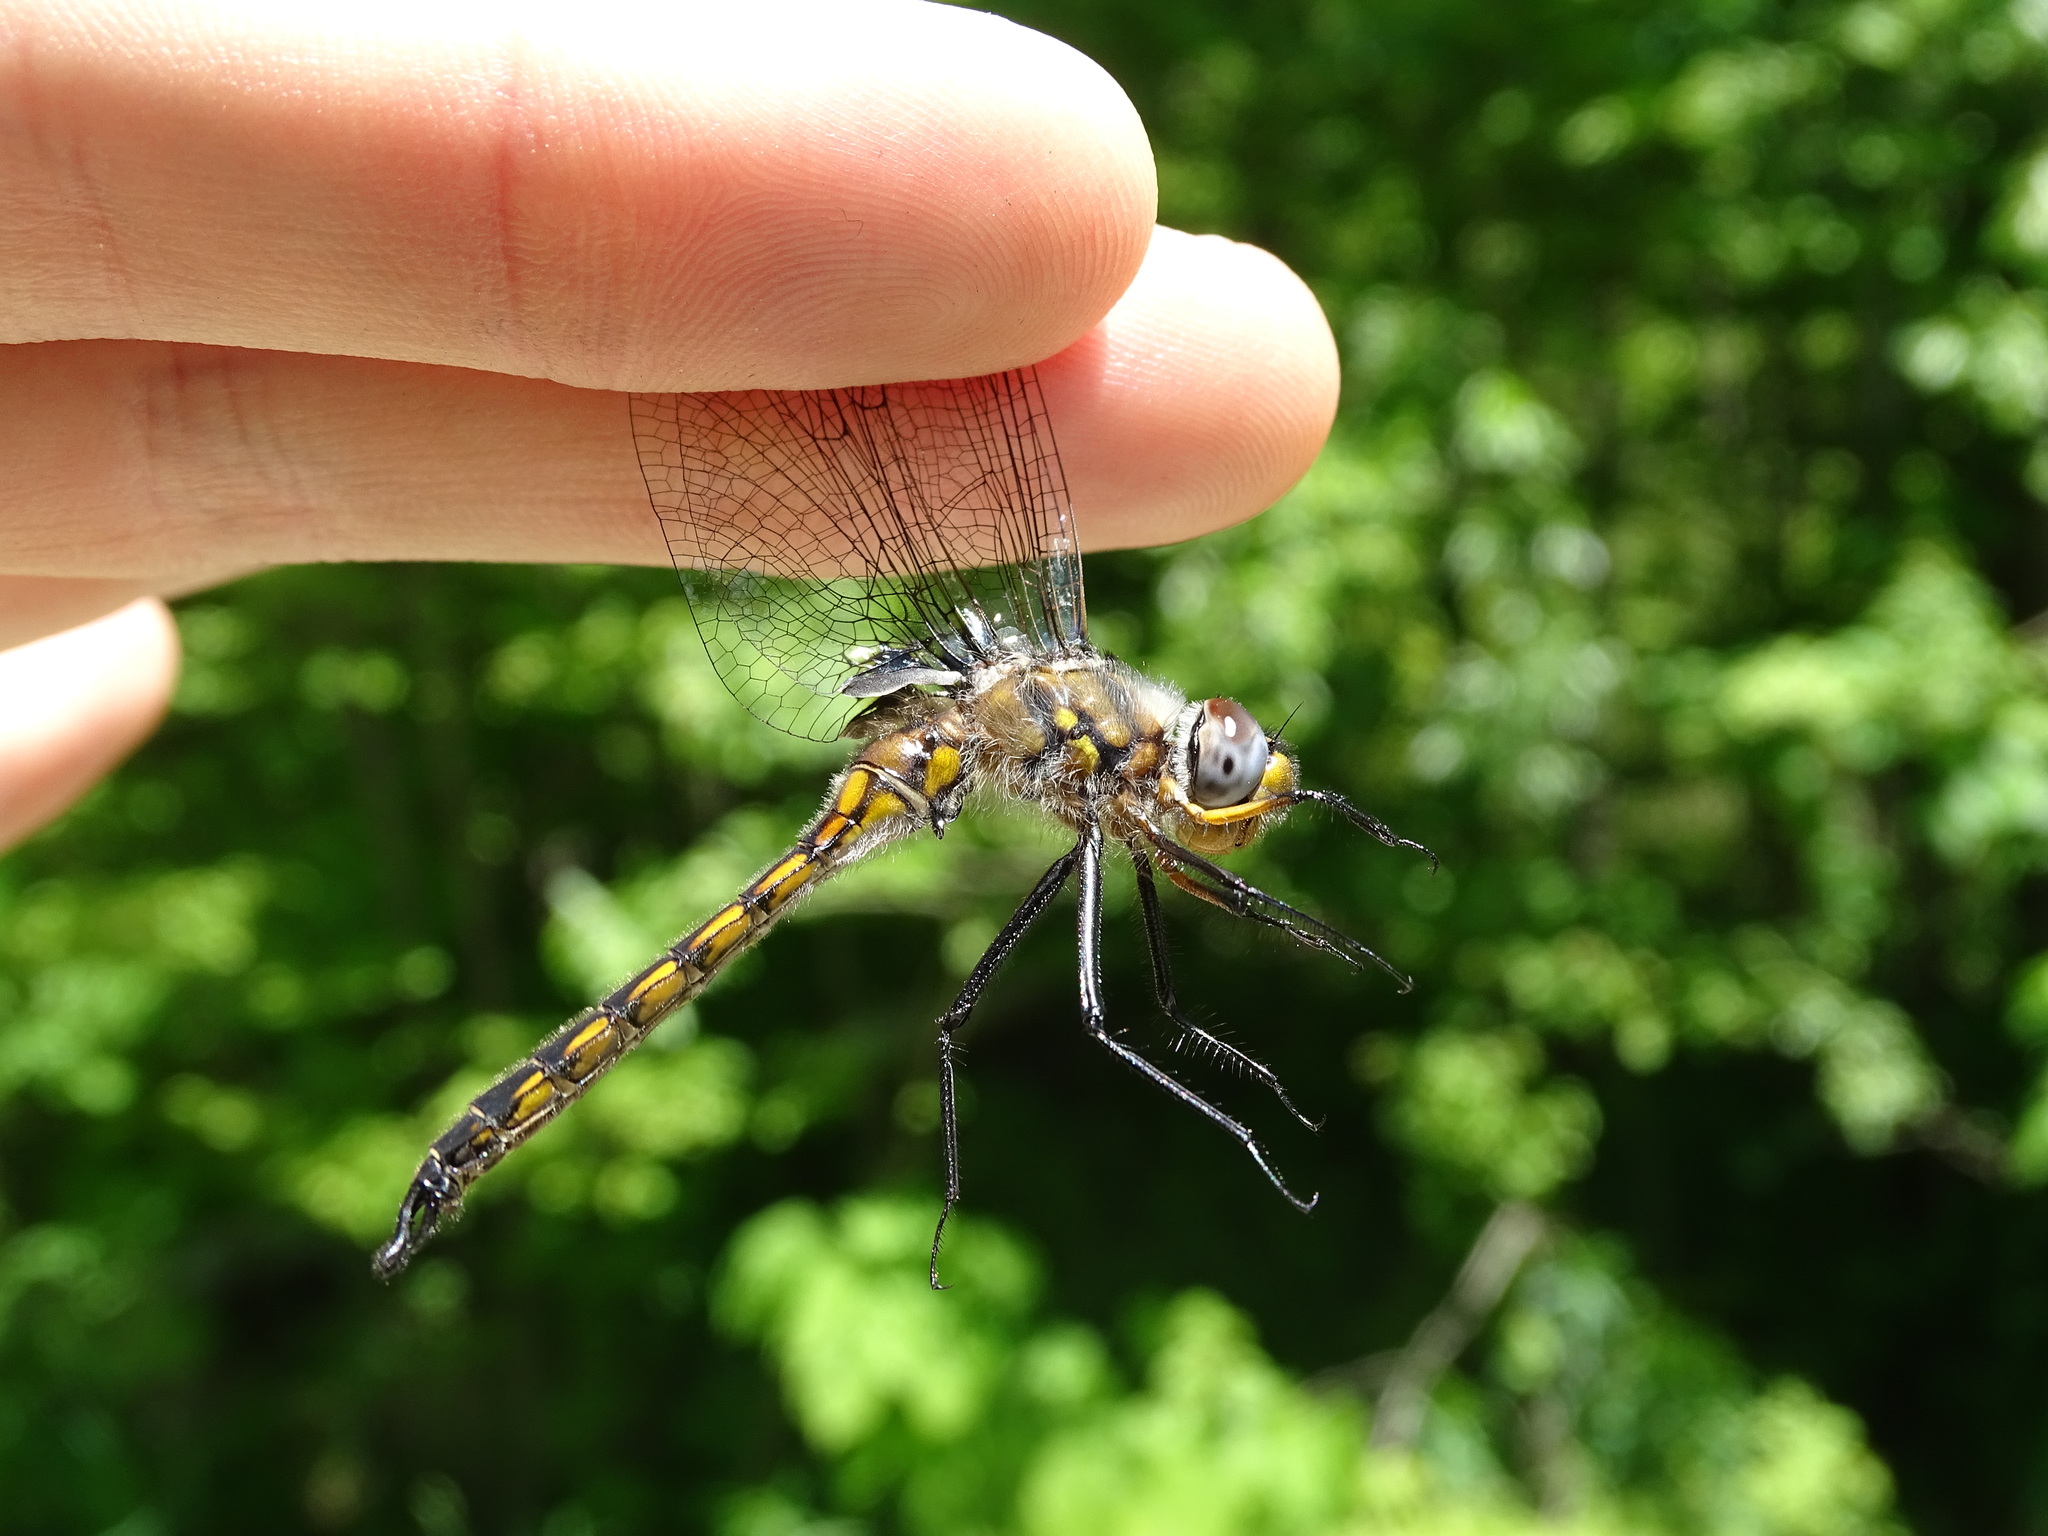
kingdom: Animalia
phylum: Arthropoda
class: Insecta
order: Odonata
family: Corduliidae
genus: Epitheca
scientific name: Epitheca spinigera
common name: Spiny baskettail
